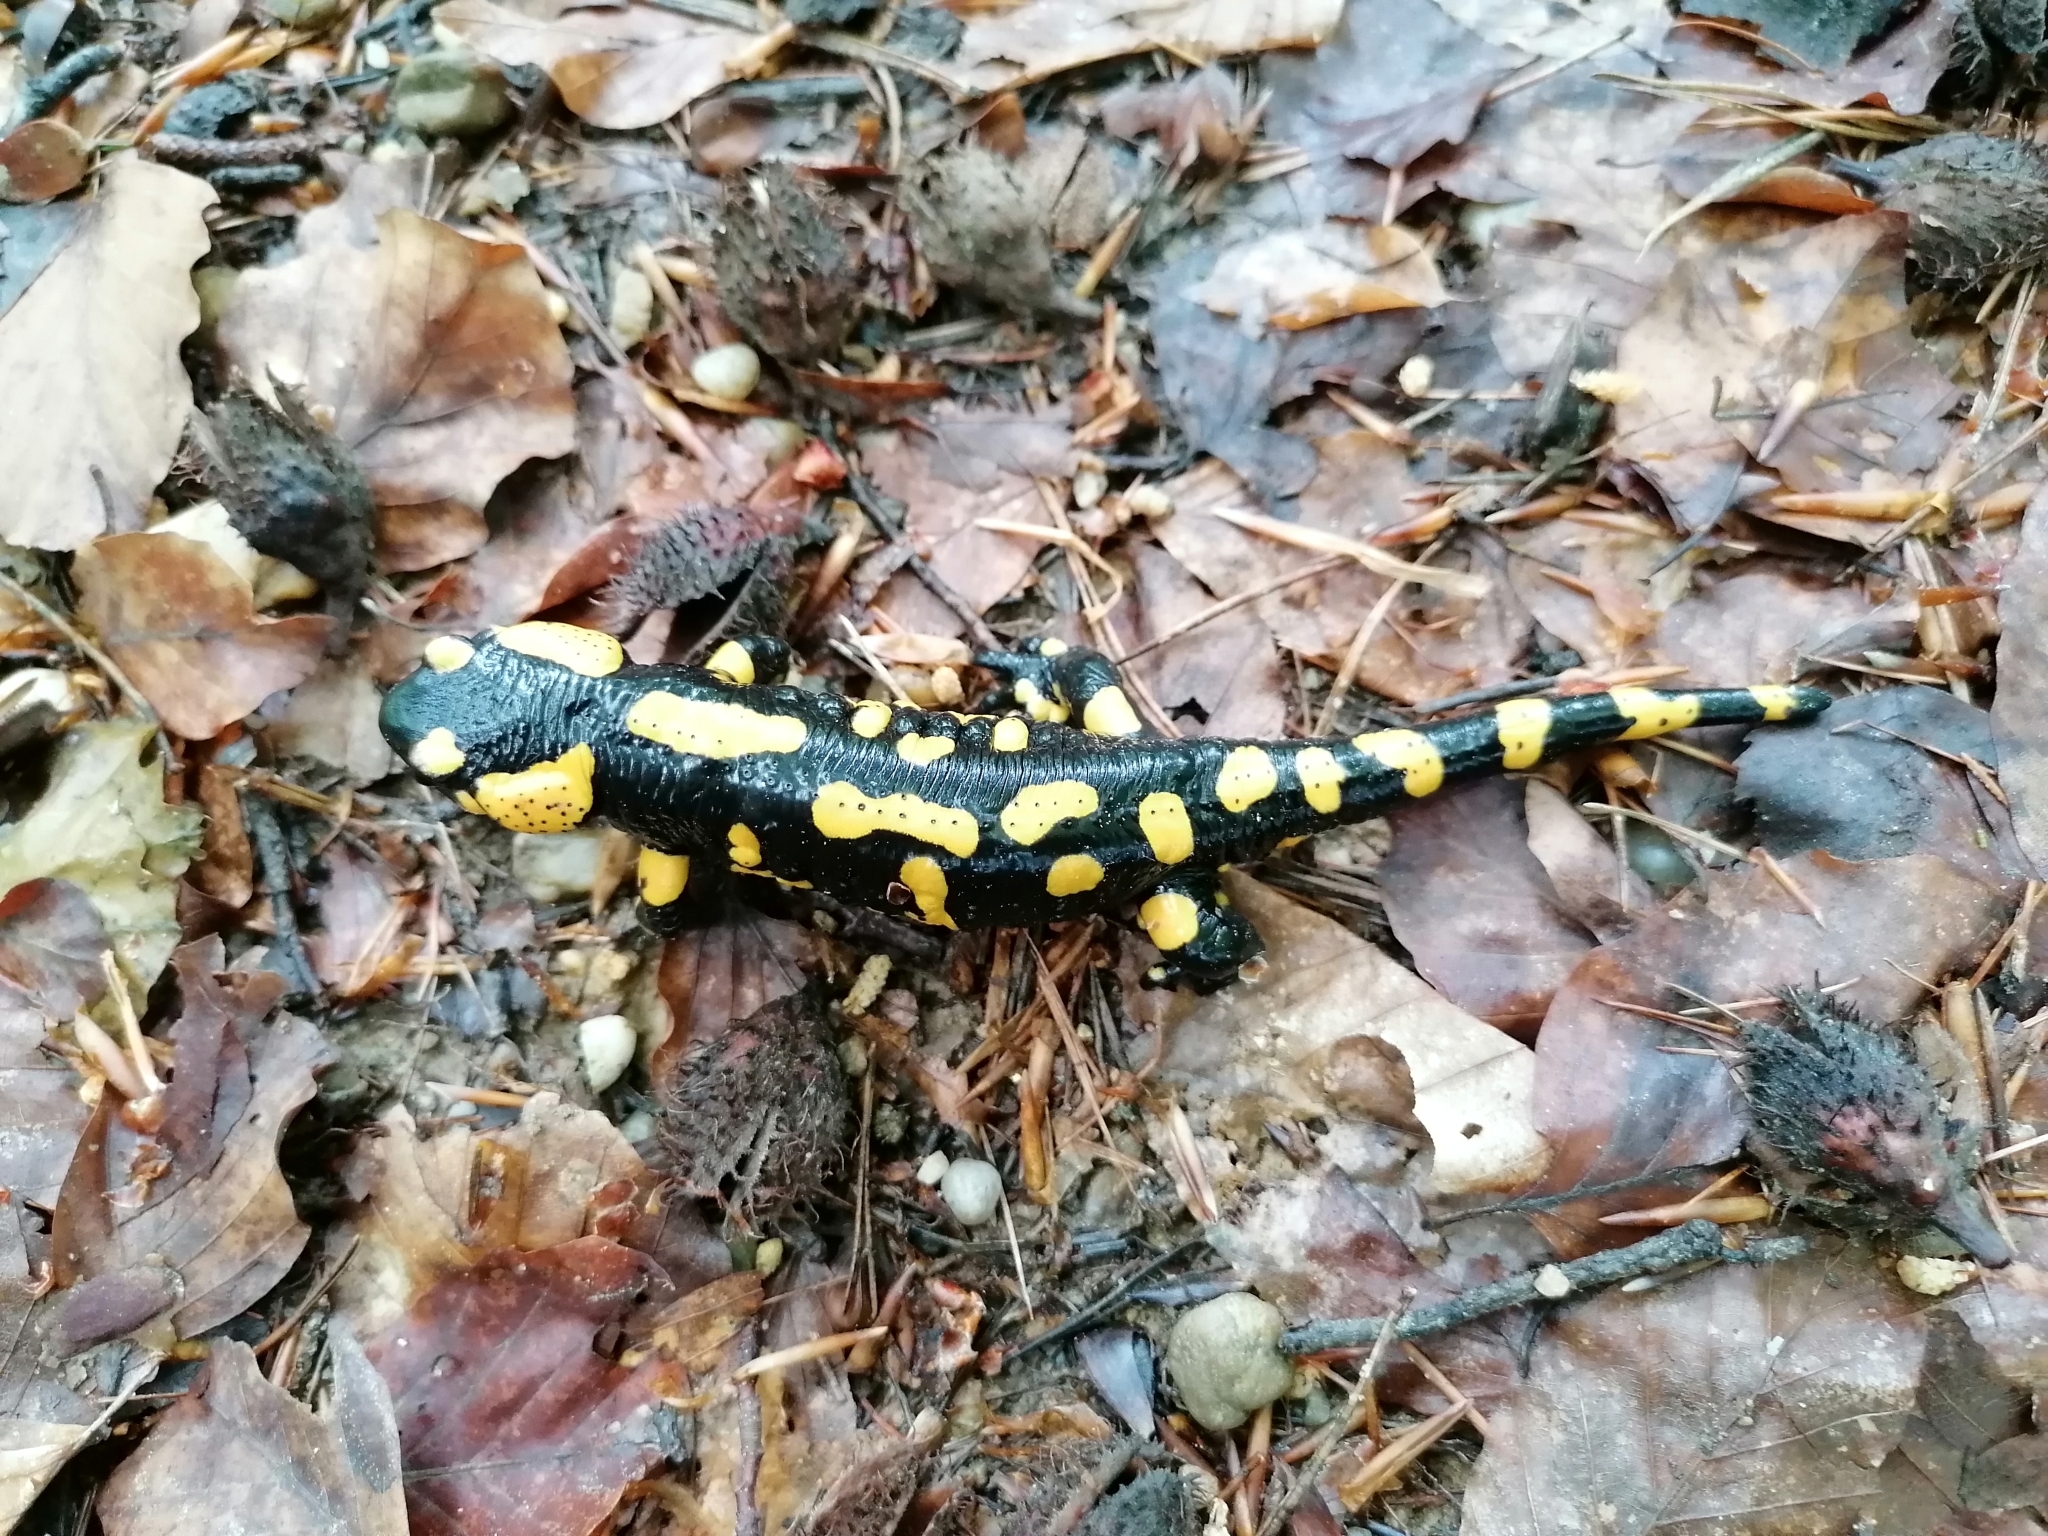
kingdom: Animalia
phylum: Chordata
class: Amphibia
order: Caudata
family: Salamandridae
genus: Salamandra
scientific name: Salamandra salamandra
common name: Fire salamander
